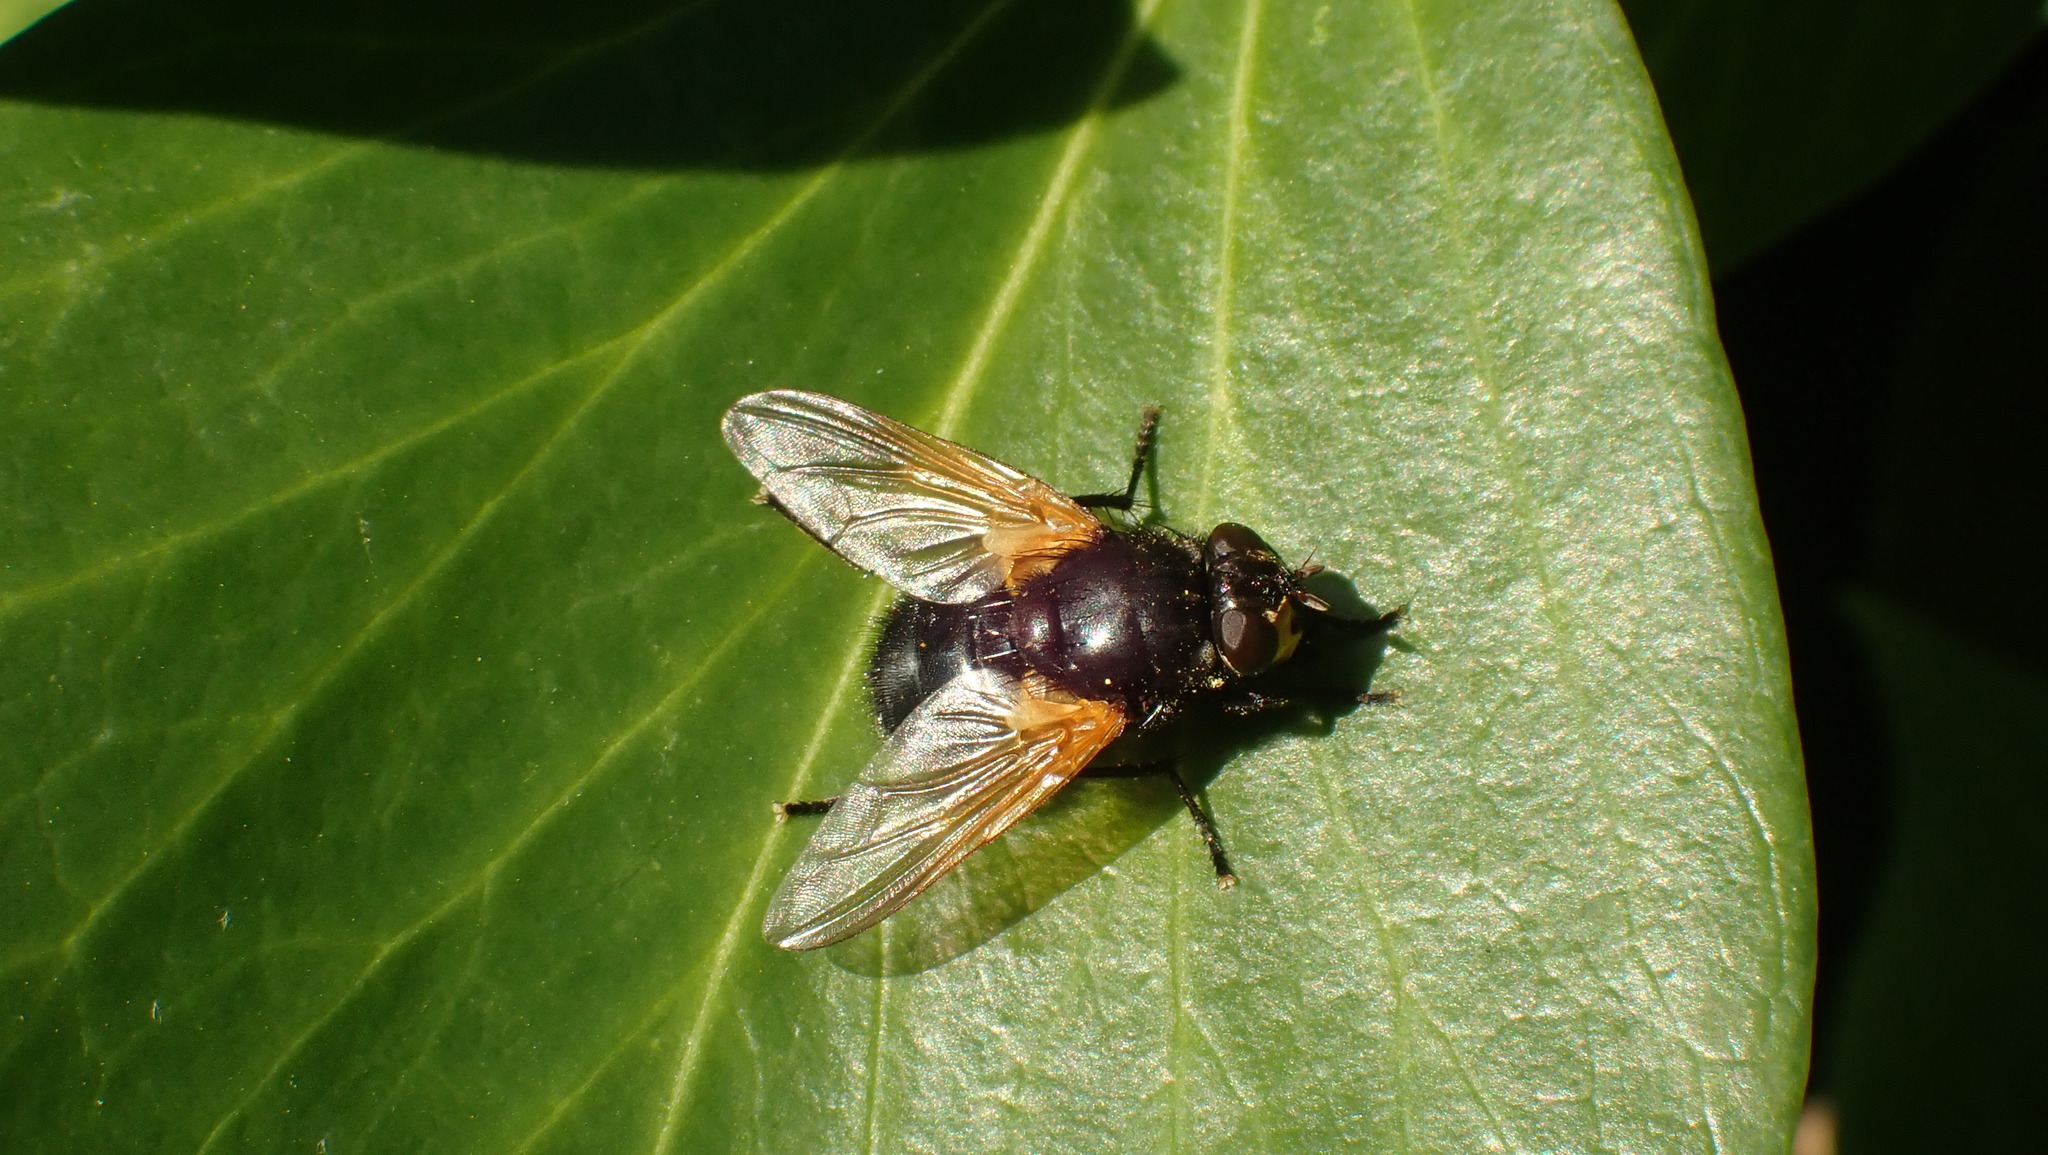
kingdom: Animalia
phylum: Arthropoda
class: Insecta
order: Diptera
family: Muscidae
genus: Mesembrina
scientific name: Mesembrina meridiana
